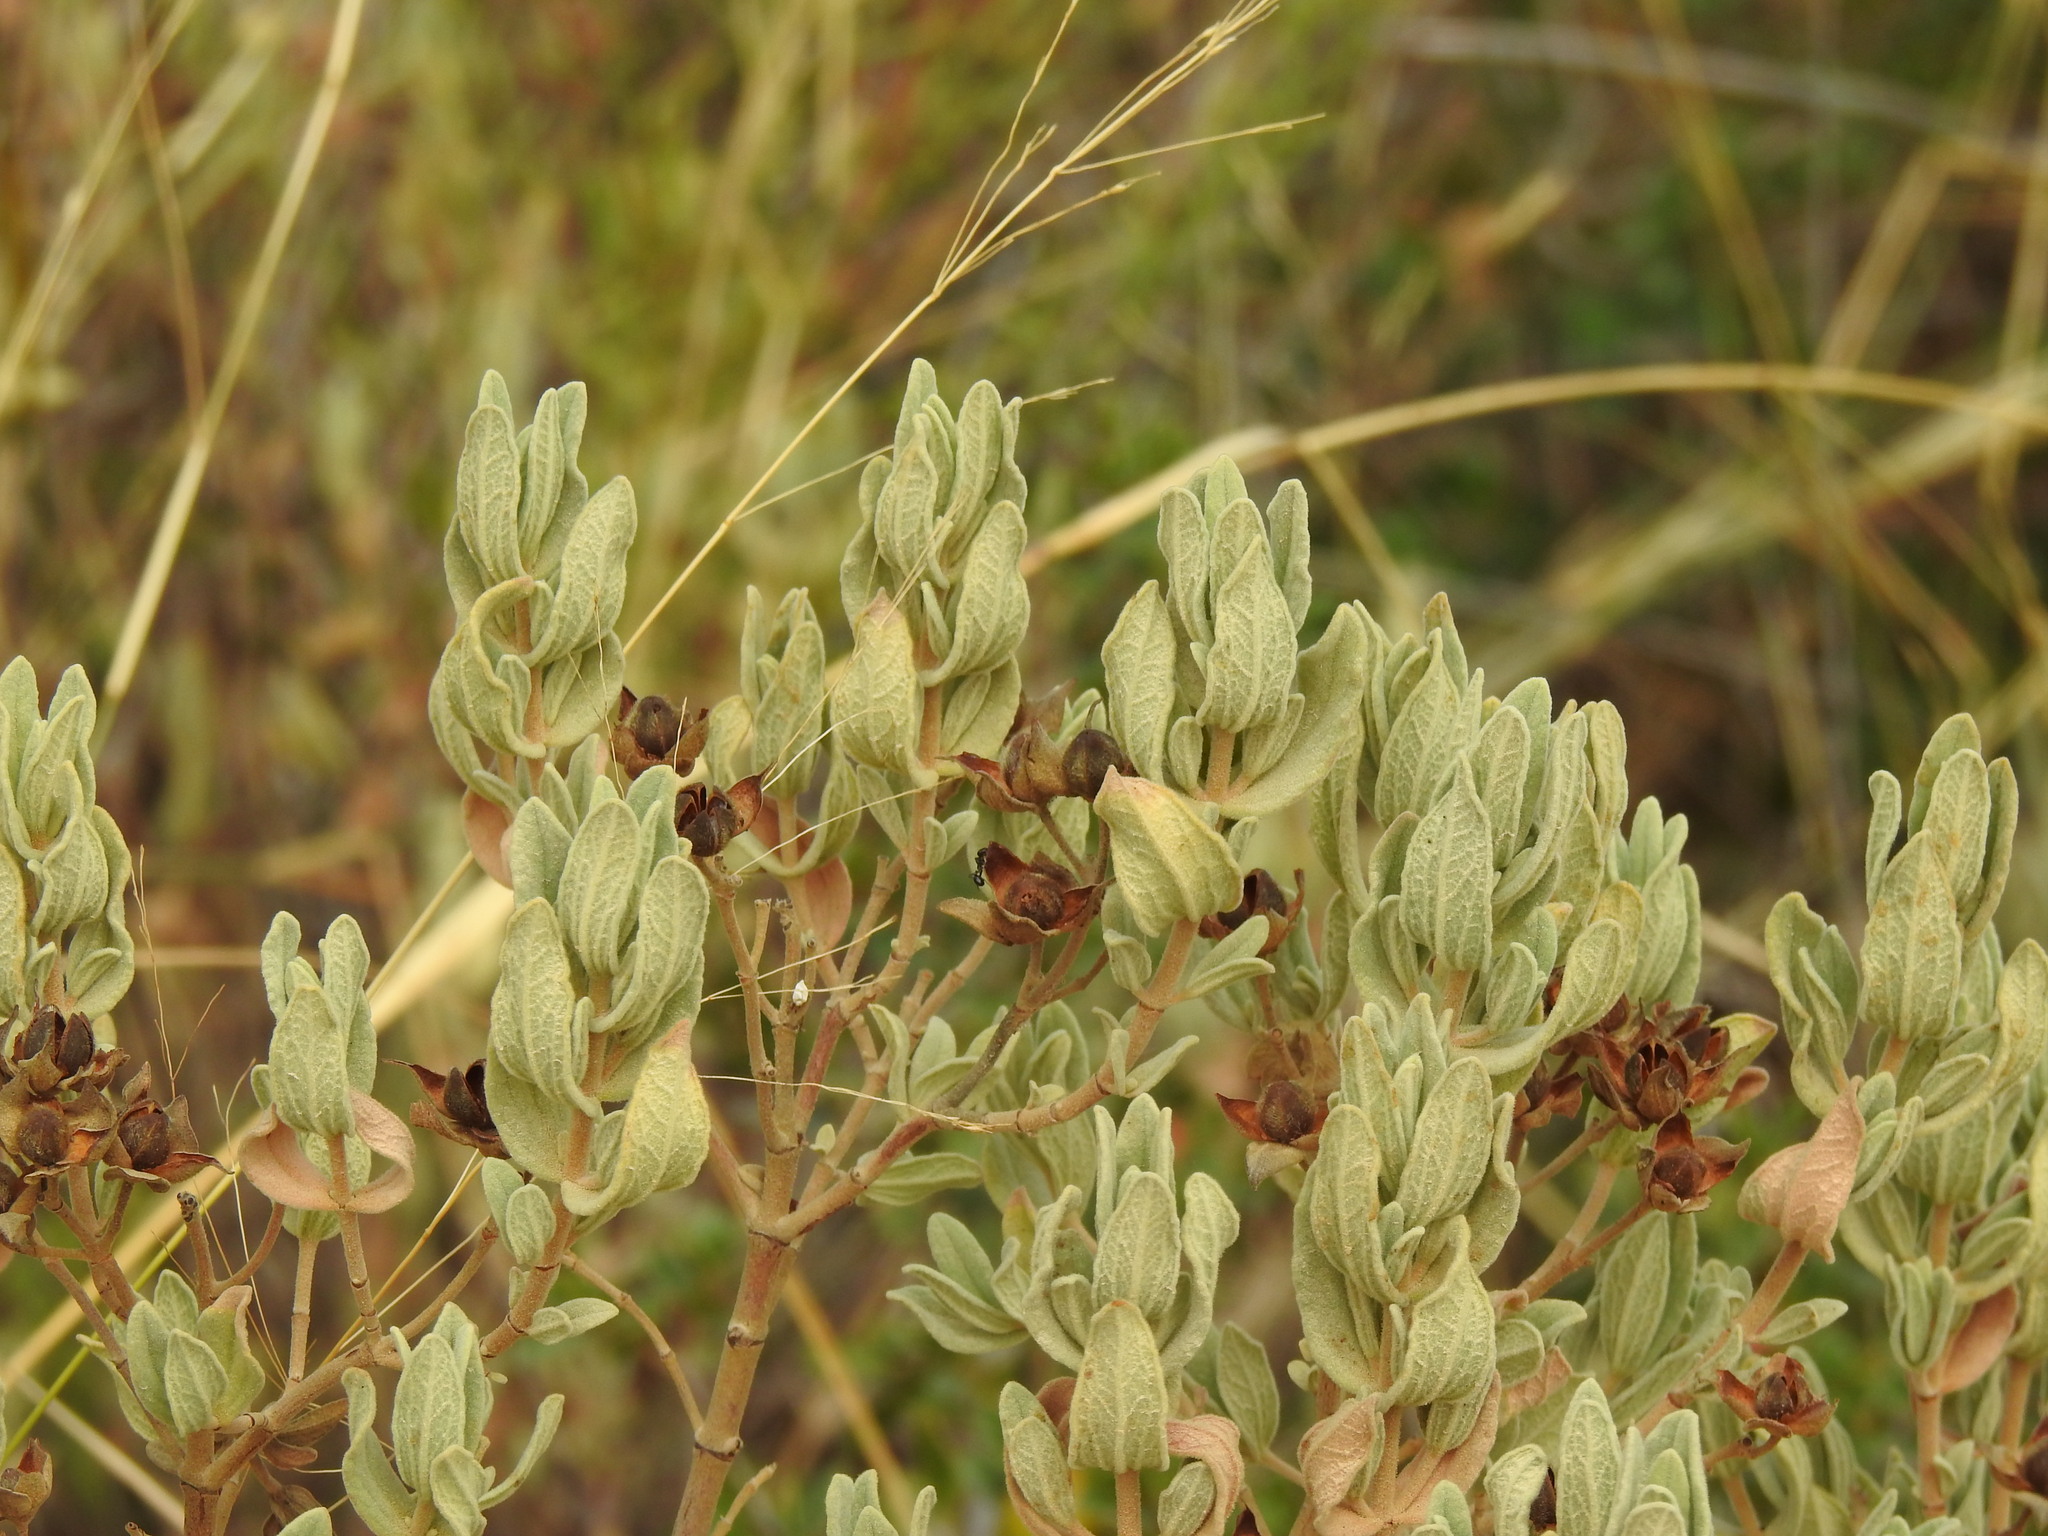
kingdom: Plantae
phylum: Tracheophyta
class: Magnoliopsida
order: Malvales
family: Cistaceae
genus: Cistus
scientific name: Cistus albidus
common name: White-leaf rock-rose
